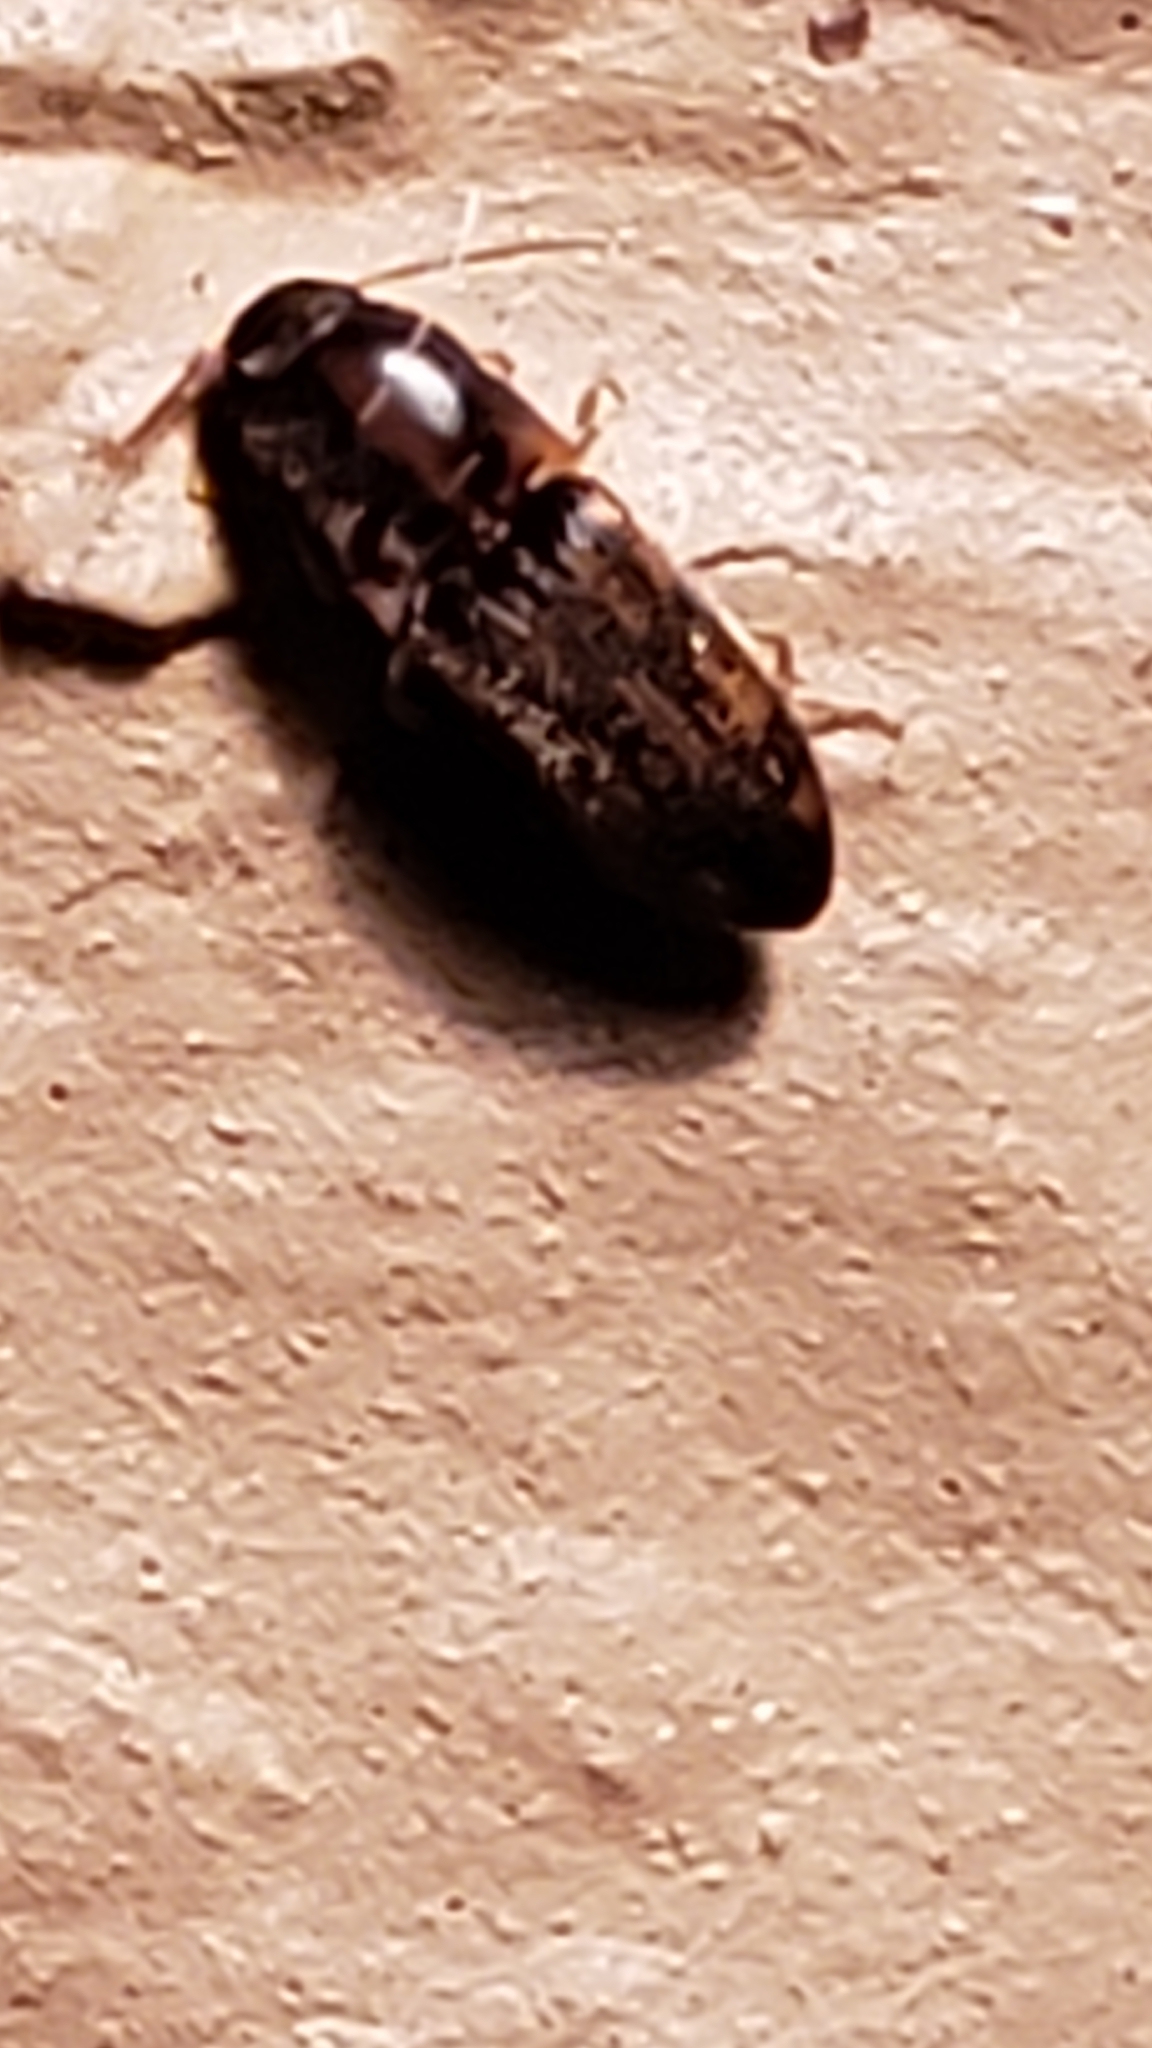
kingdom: Animalia
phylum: Arthropoda
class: Insecta
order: Coleoptera
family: Elateridae
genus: Monocrepidius
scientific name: Monocrepidius bellus
